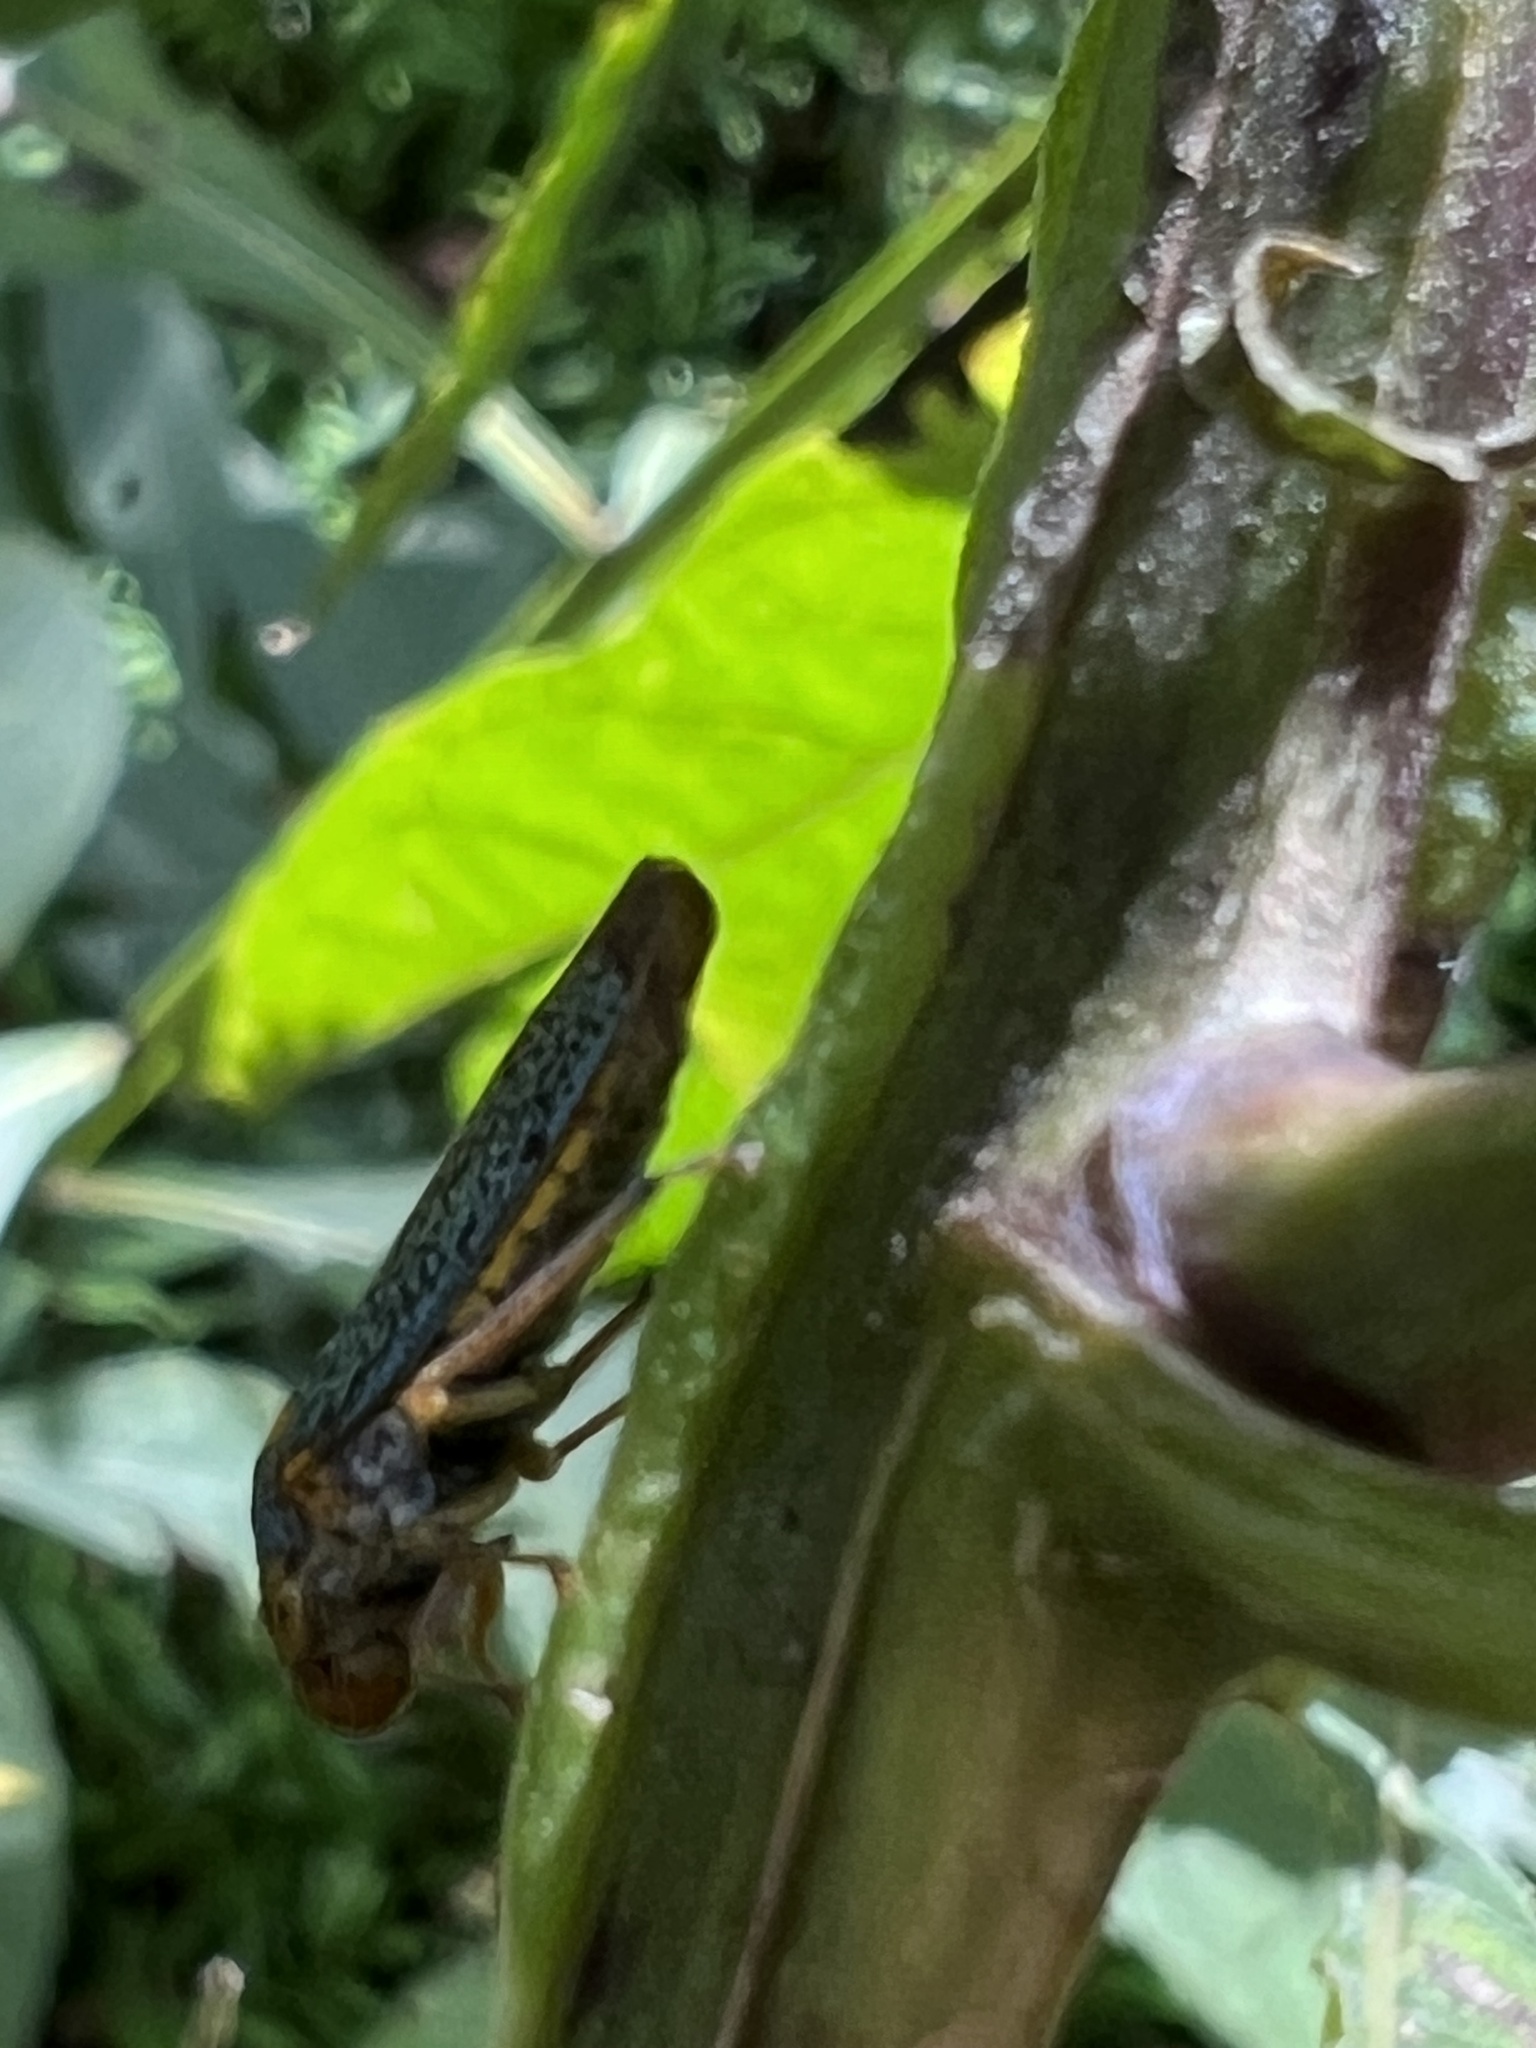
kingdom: Animalia
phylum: Arthropoda
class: Insecta
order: Hemiptera
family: Cicadellidae
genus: Oncometopia
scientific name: Oncometopia orbona
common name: Broad-headed sharpshooter
